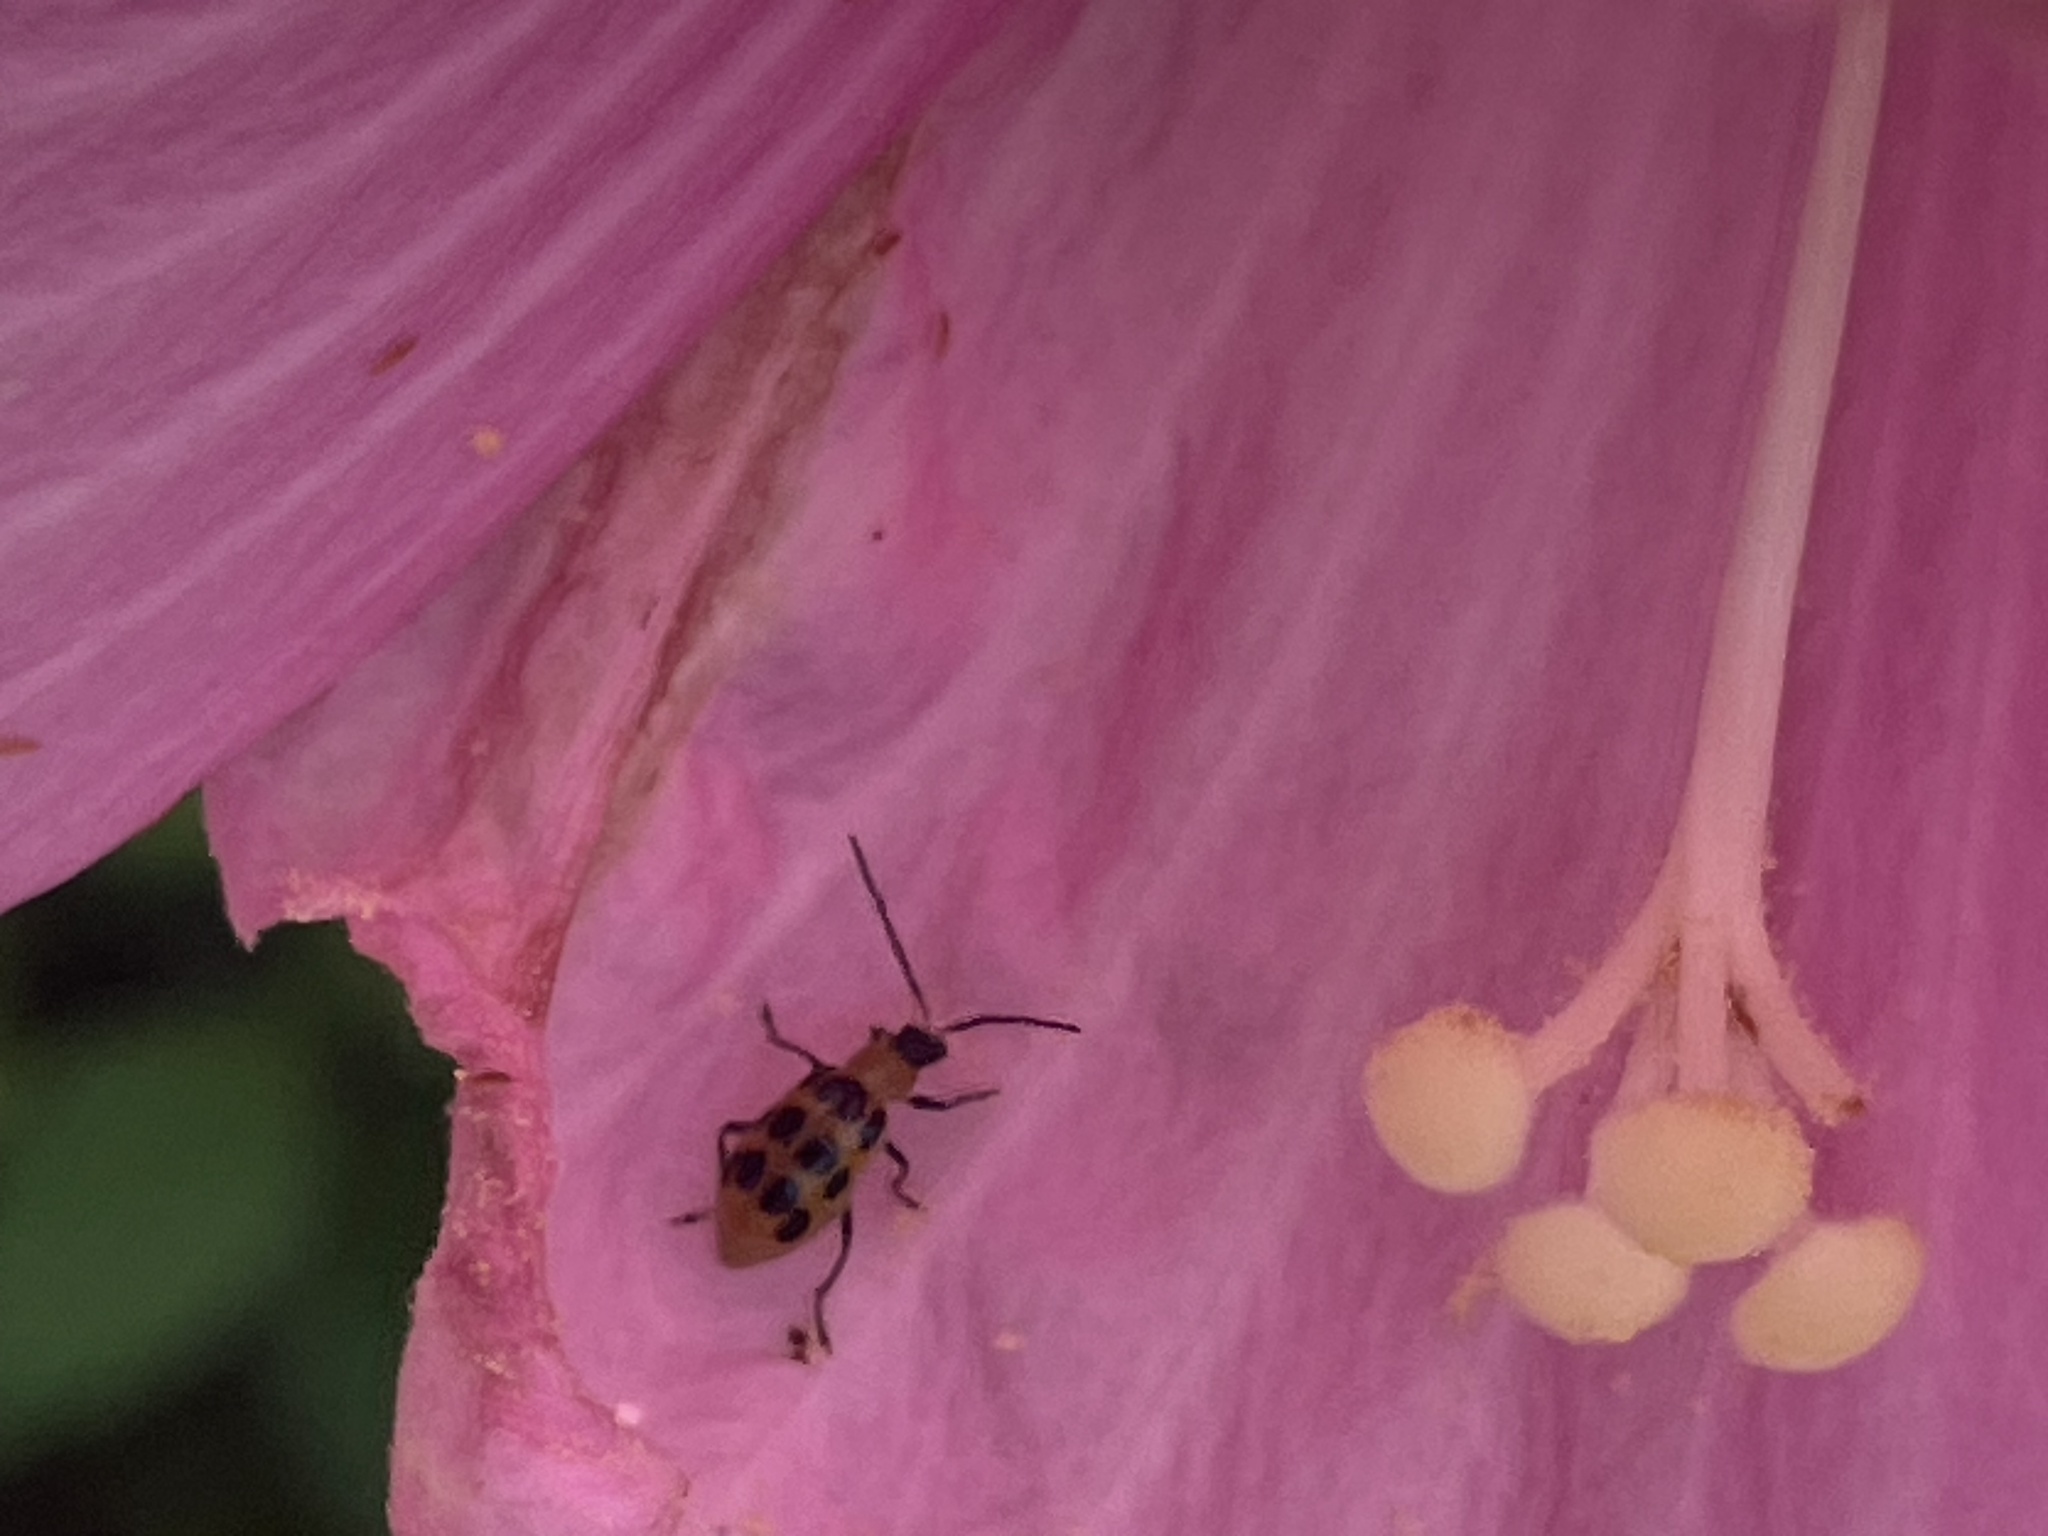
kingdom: Animalia
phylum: Arthropoda
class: Insecta
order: Coleoptera
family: Chrysomelidae
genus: Diabrotica
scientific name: Diabrotica undecimpunctata
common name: Spotted cucumber beetle
